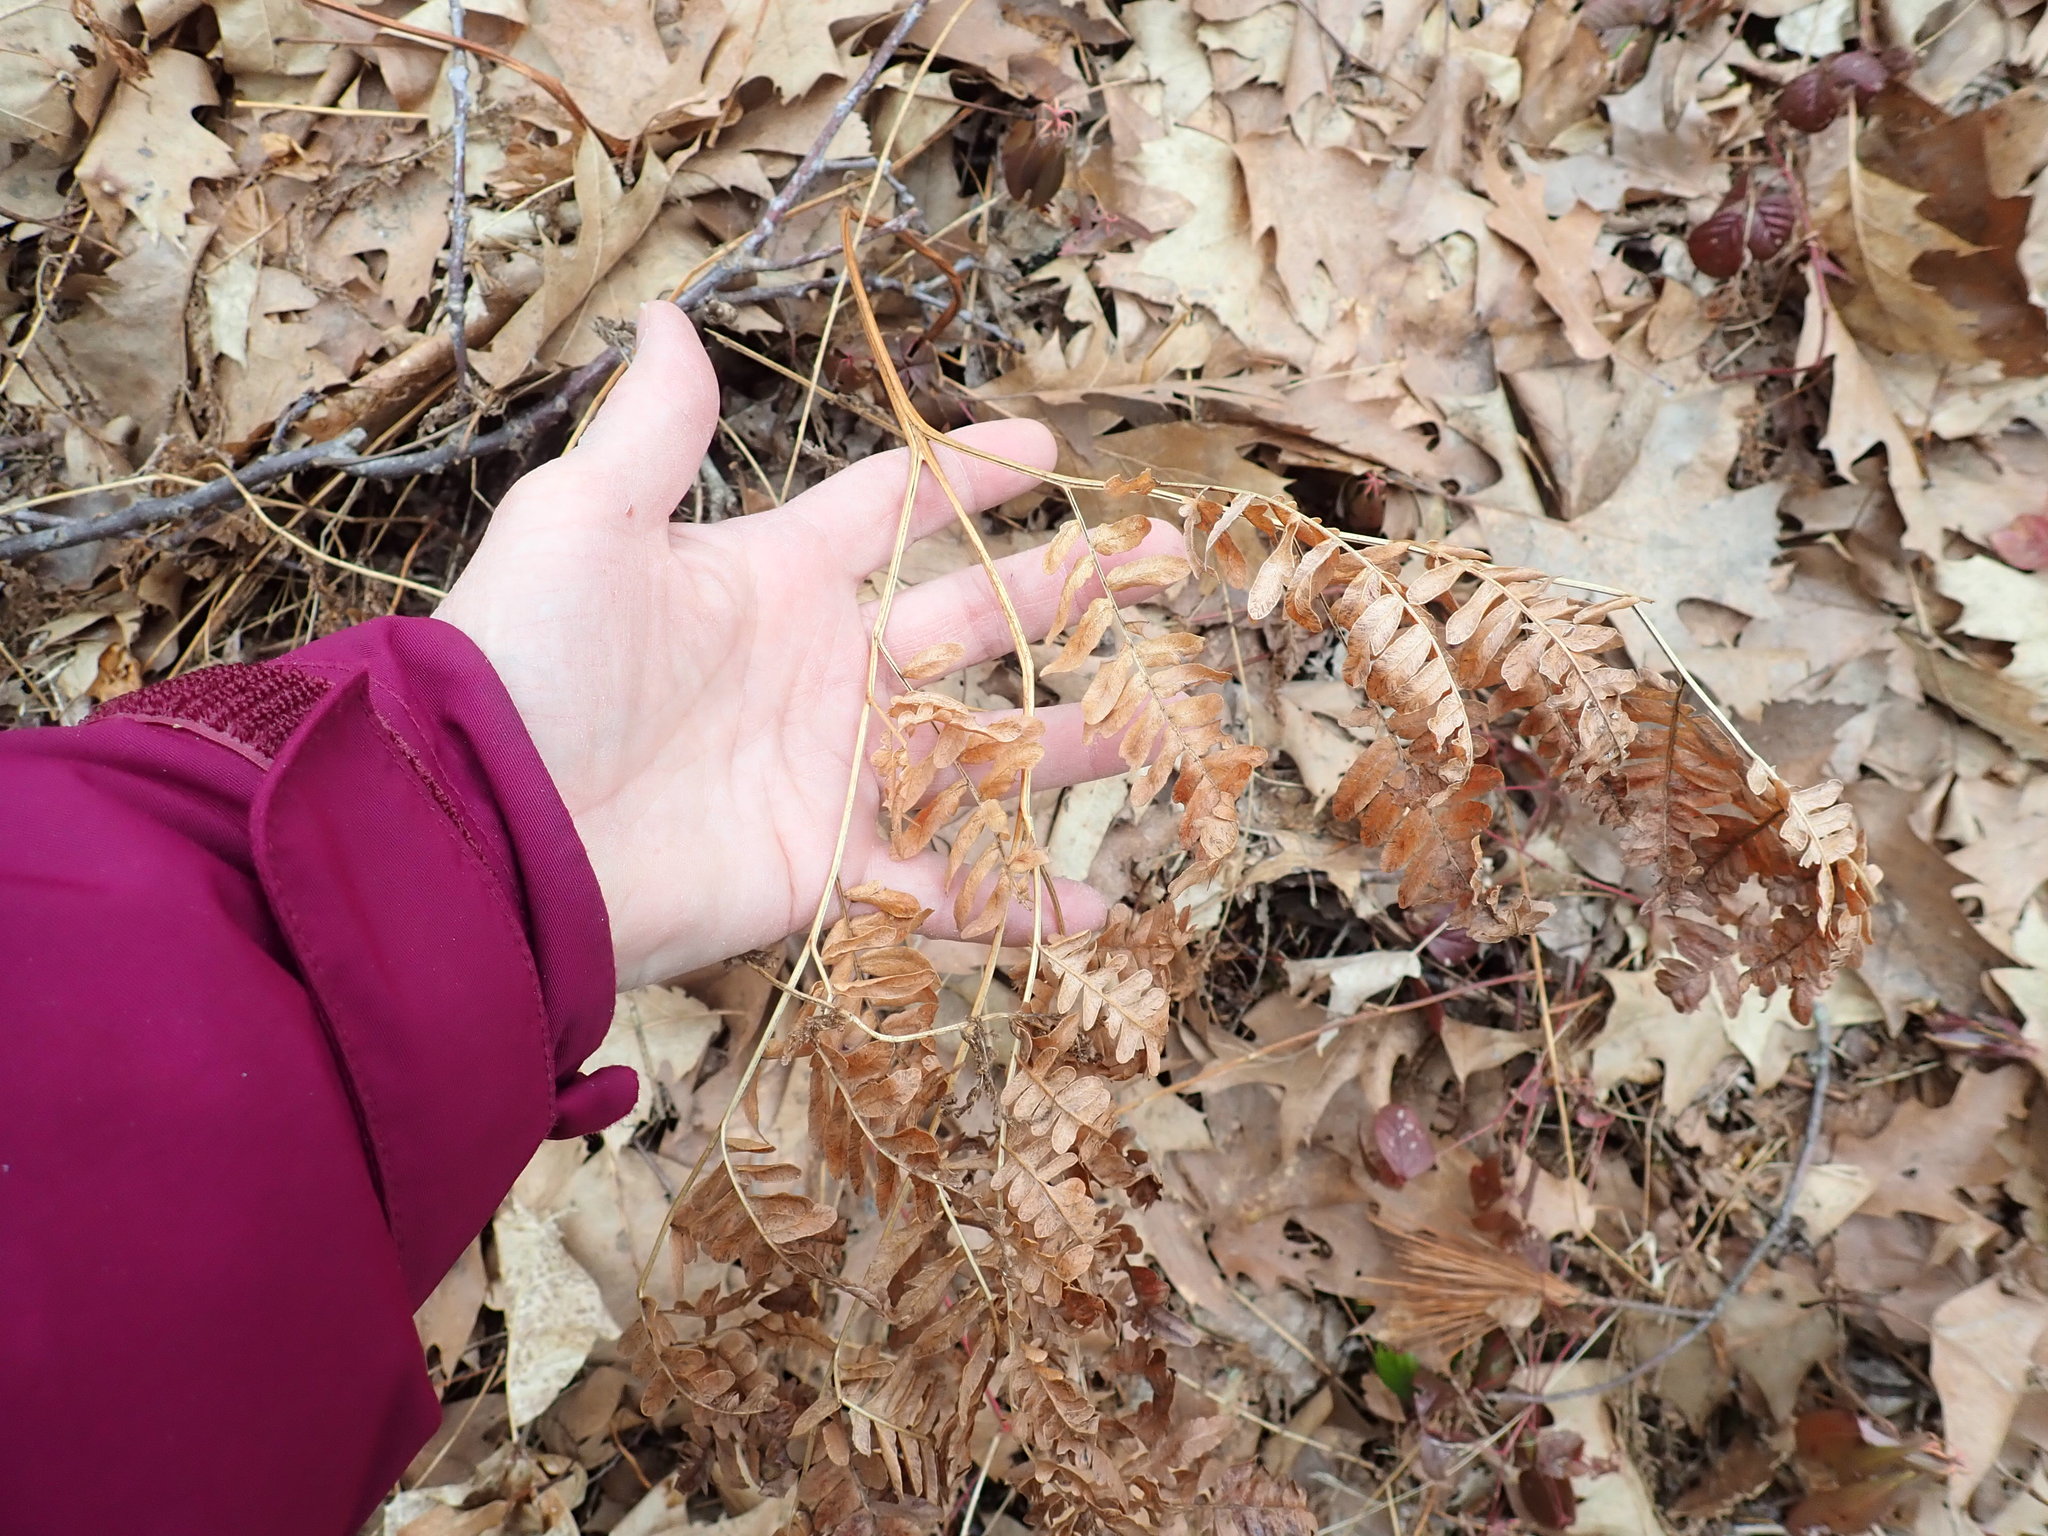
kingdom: Plantae
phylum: Tracheophyta
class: Polypodiopsida
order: Polypodiales
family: Dennstaedtiaceae
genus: Pteridium
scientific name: Pteridium aquilinum
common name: Bracken
